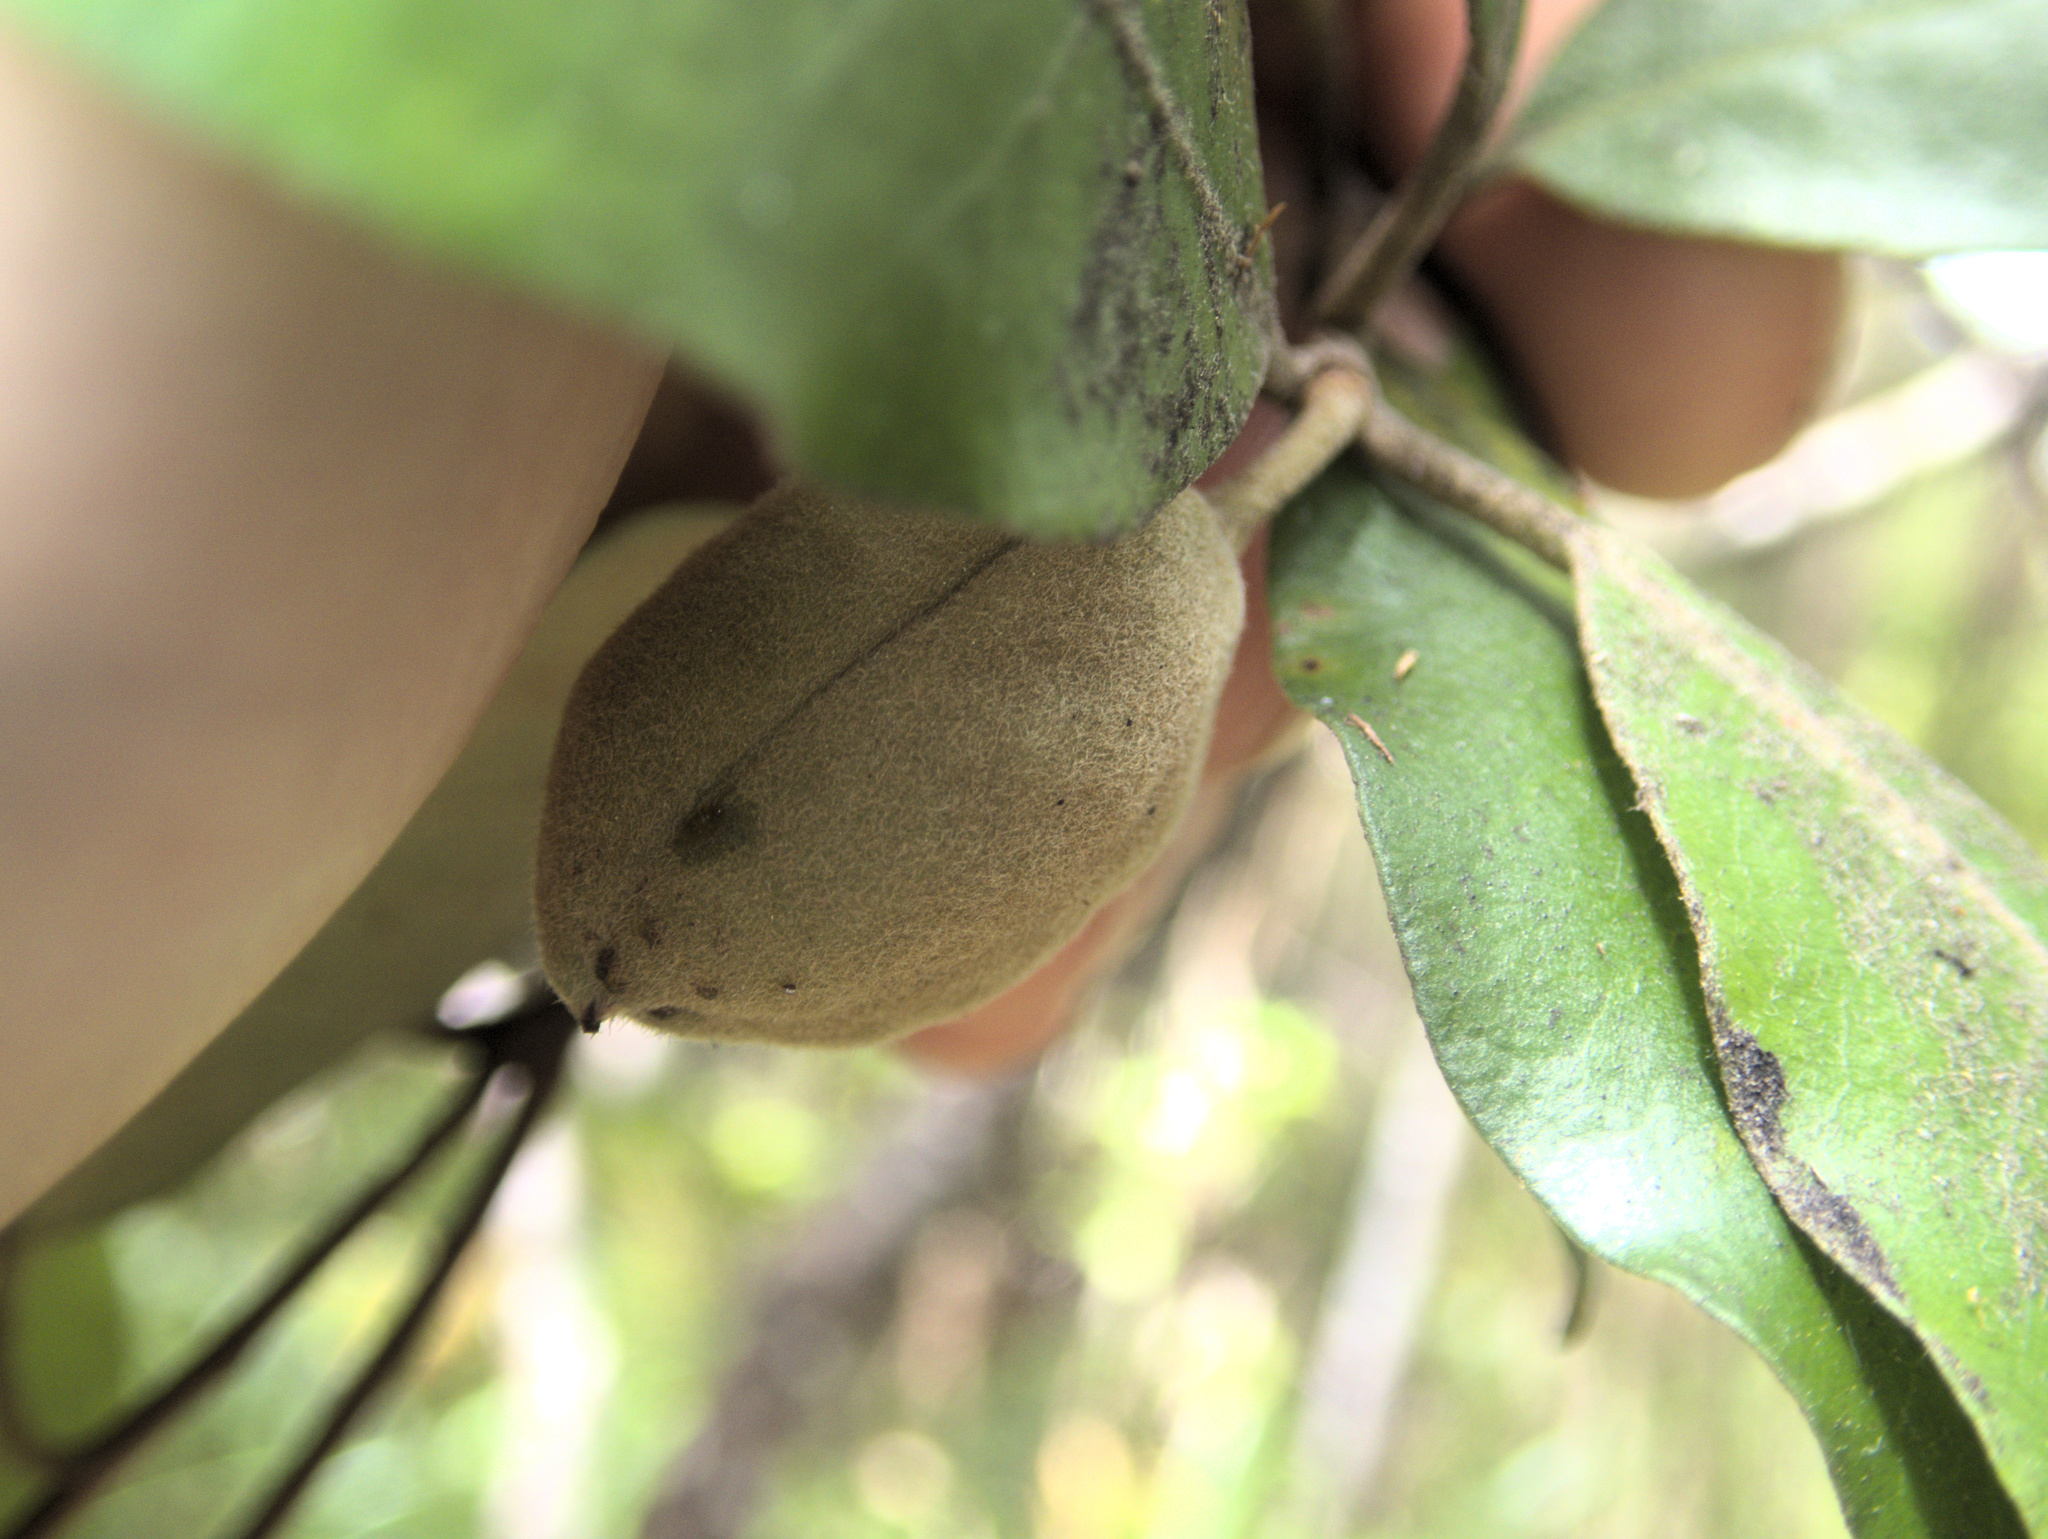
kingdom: Plantae
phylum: Tracheophyta
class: Magnoliopsida
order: Apiales
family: Pittosporaceae
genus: Pittosporum
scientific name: Pittosporum ellipticum
